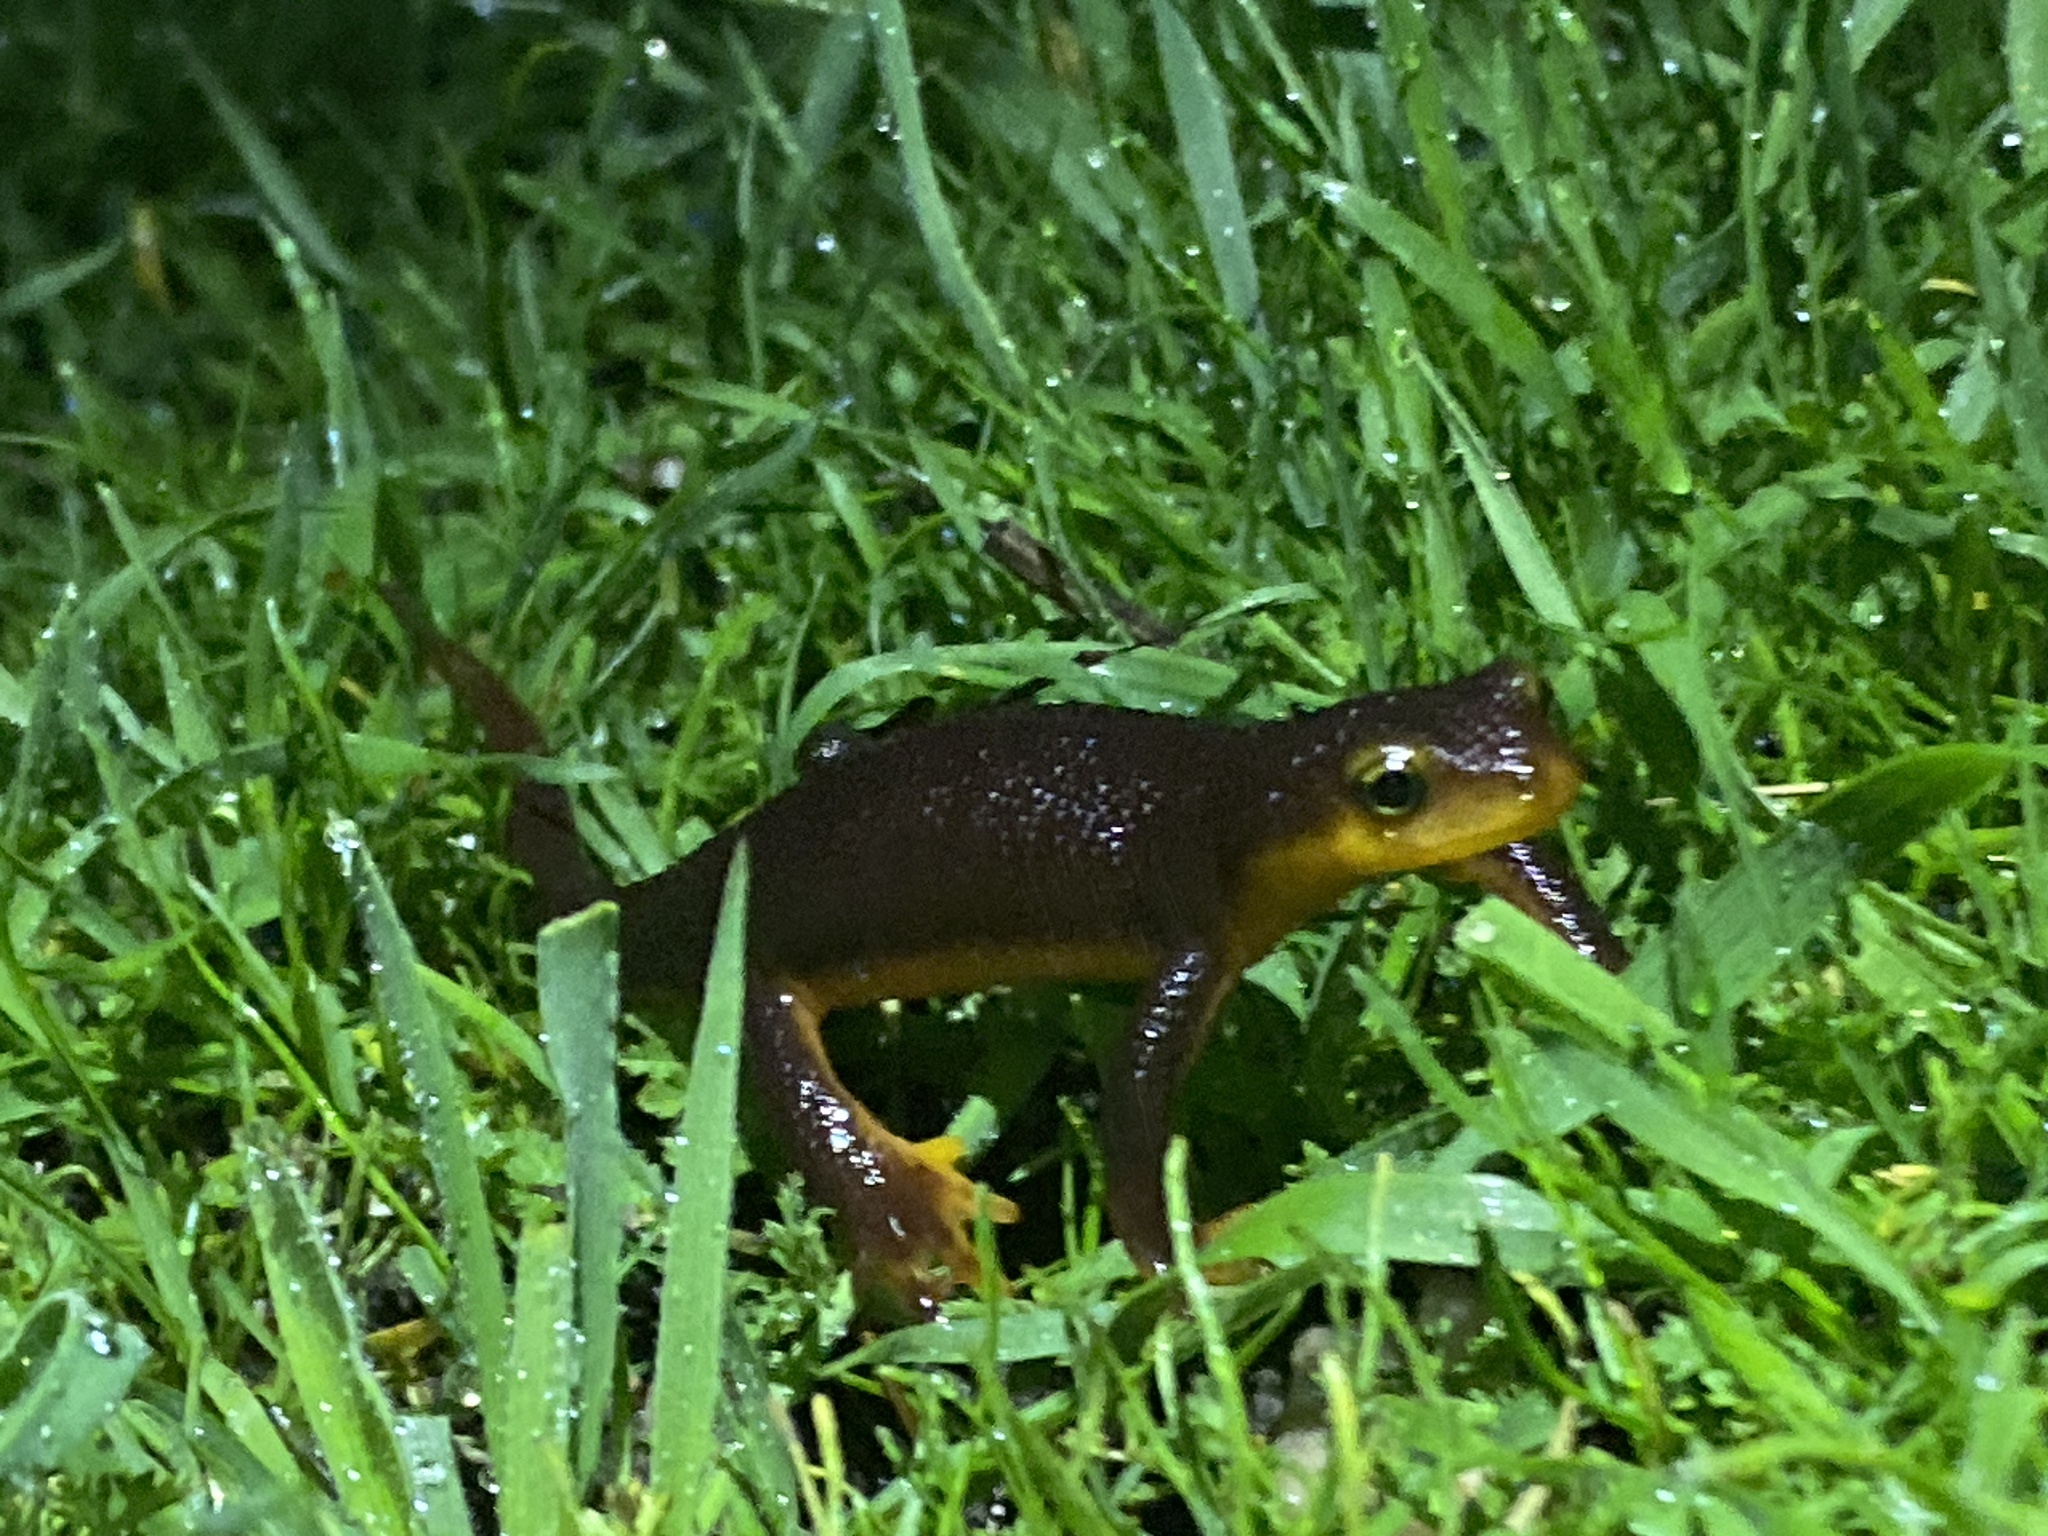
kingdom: Animalia
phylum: Chordata
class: Amphibia
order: Caudata
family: Salamandridae
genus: Taricha
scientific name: Taricha torosa
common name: California newt
